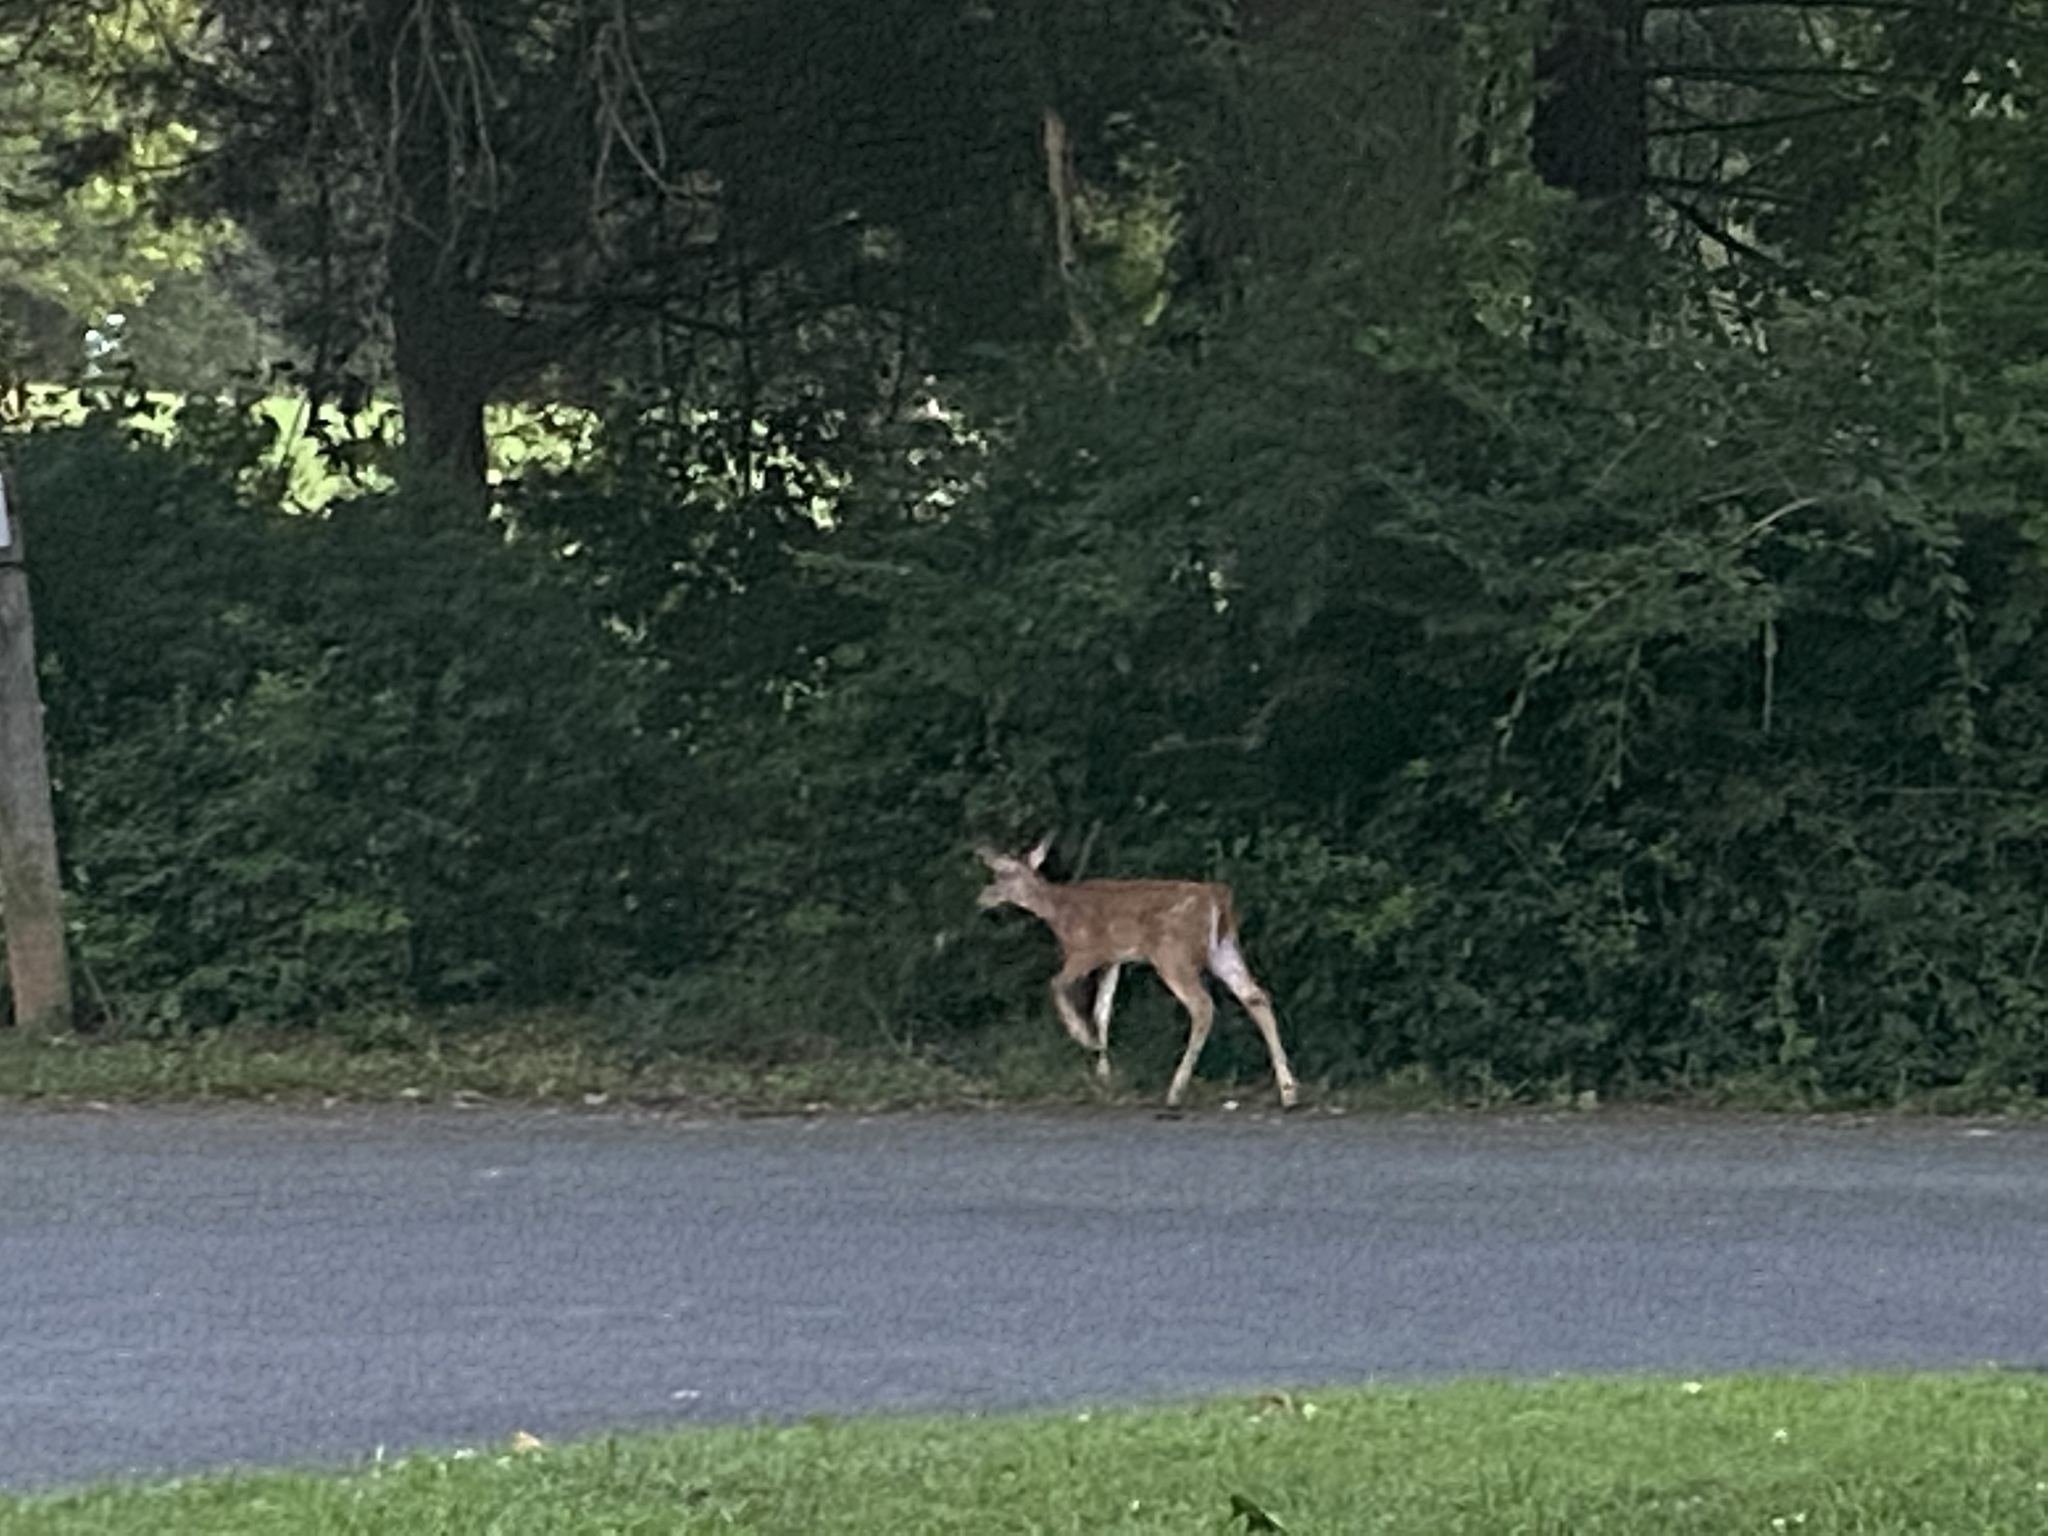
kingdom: Animalia
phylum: Chordata
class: Mammalia
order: Artiodactyla
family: Cervidae
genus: Odocoileus
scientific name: Odocoileus virginianus
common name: White-tailed deer
